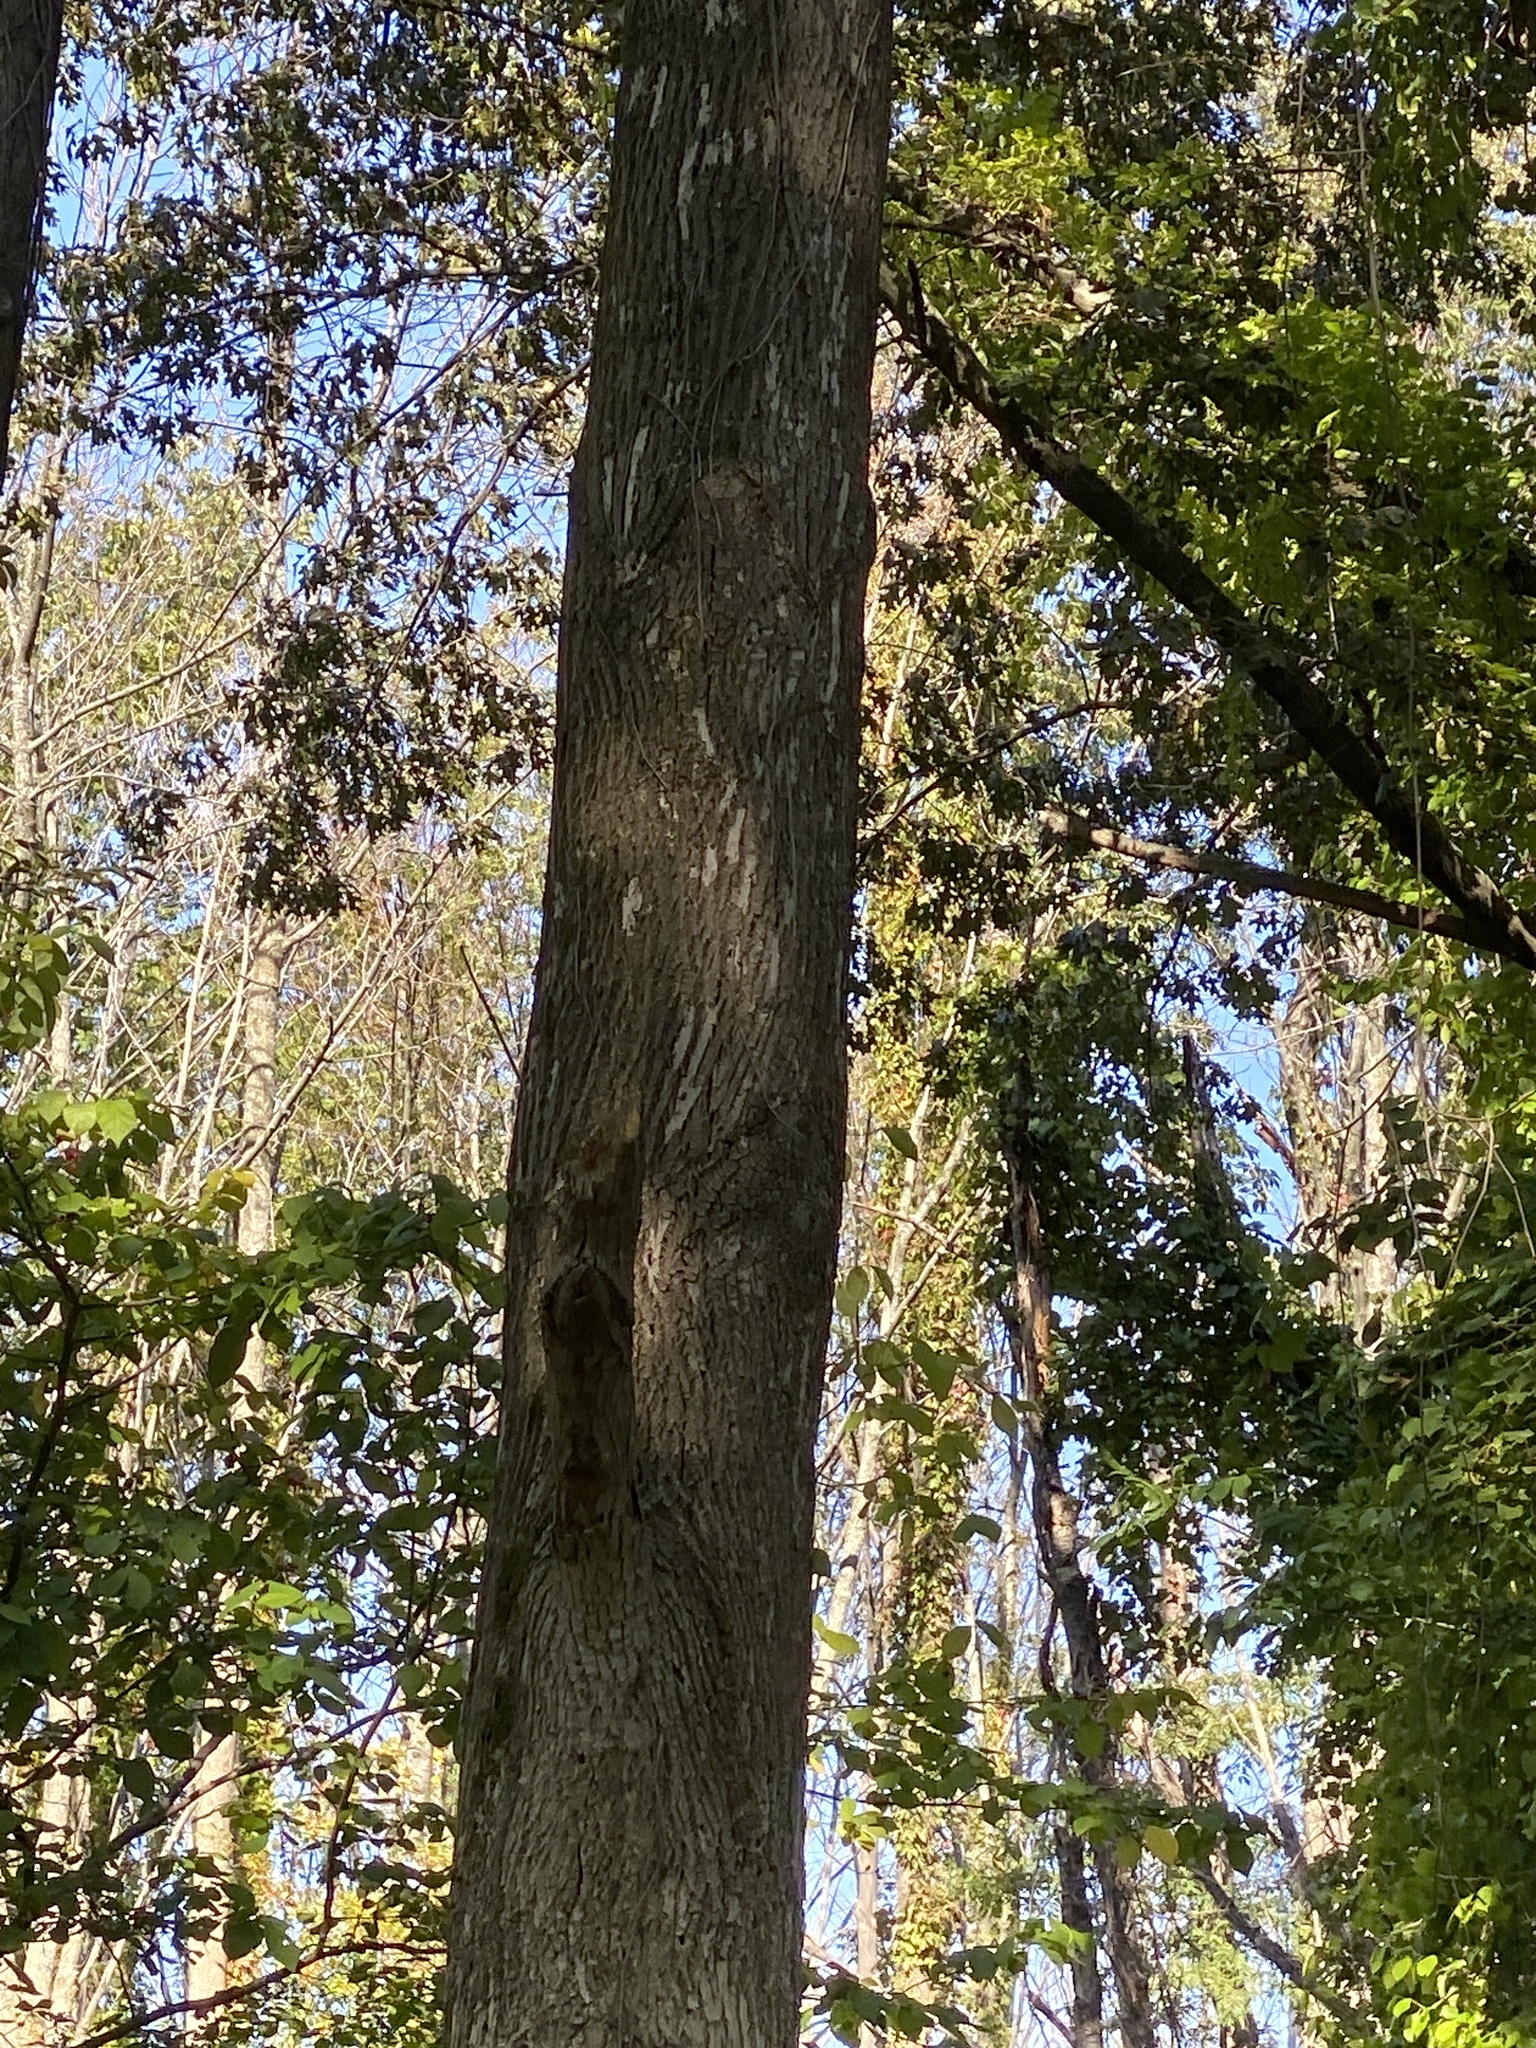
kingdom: Animalia
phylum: Arthropoda
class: Insecta
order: Coleoptera
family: Buprestidae
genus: Agrilus
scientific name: Agrilus planipennis
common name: Emerald ash borer
